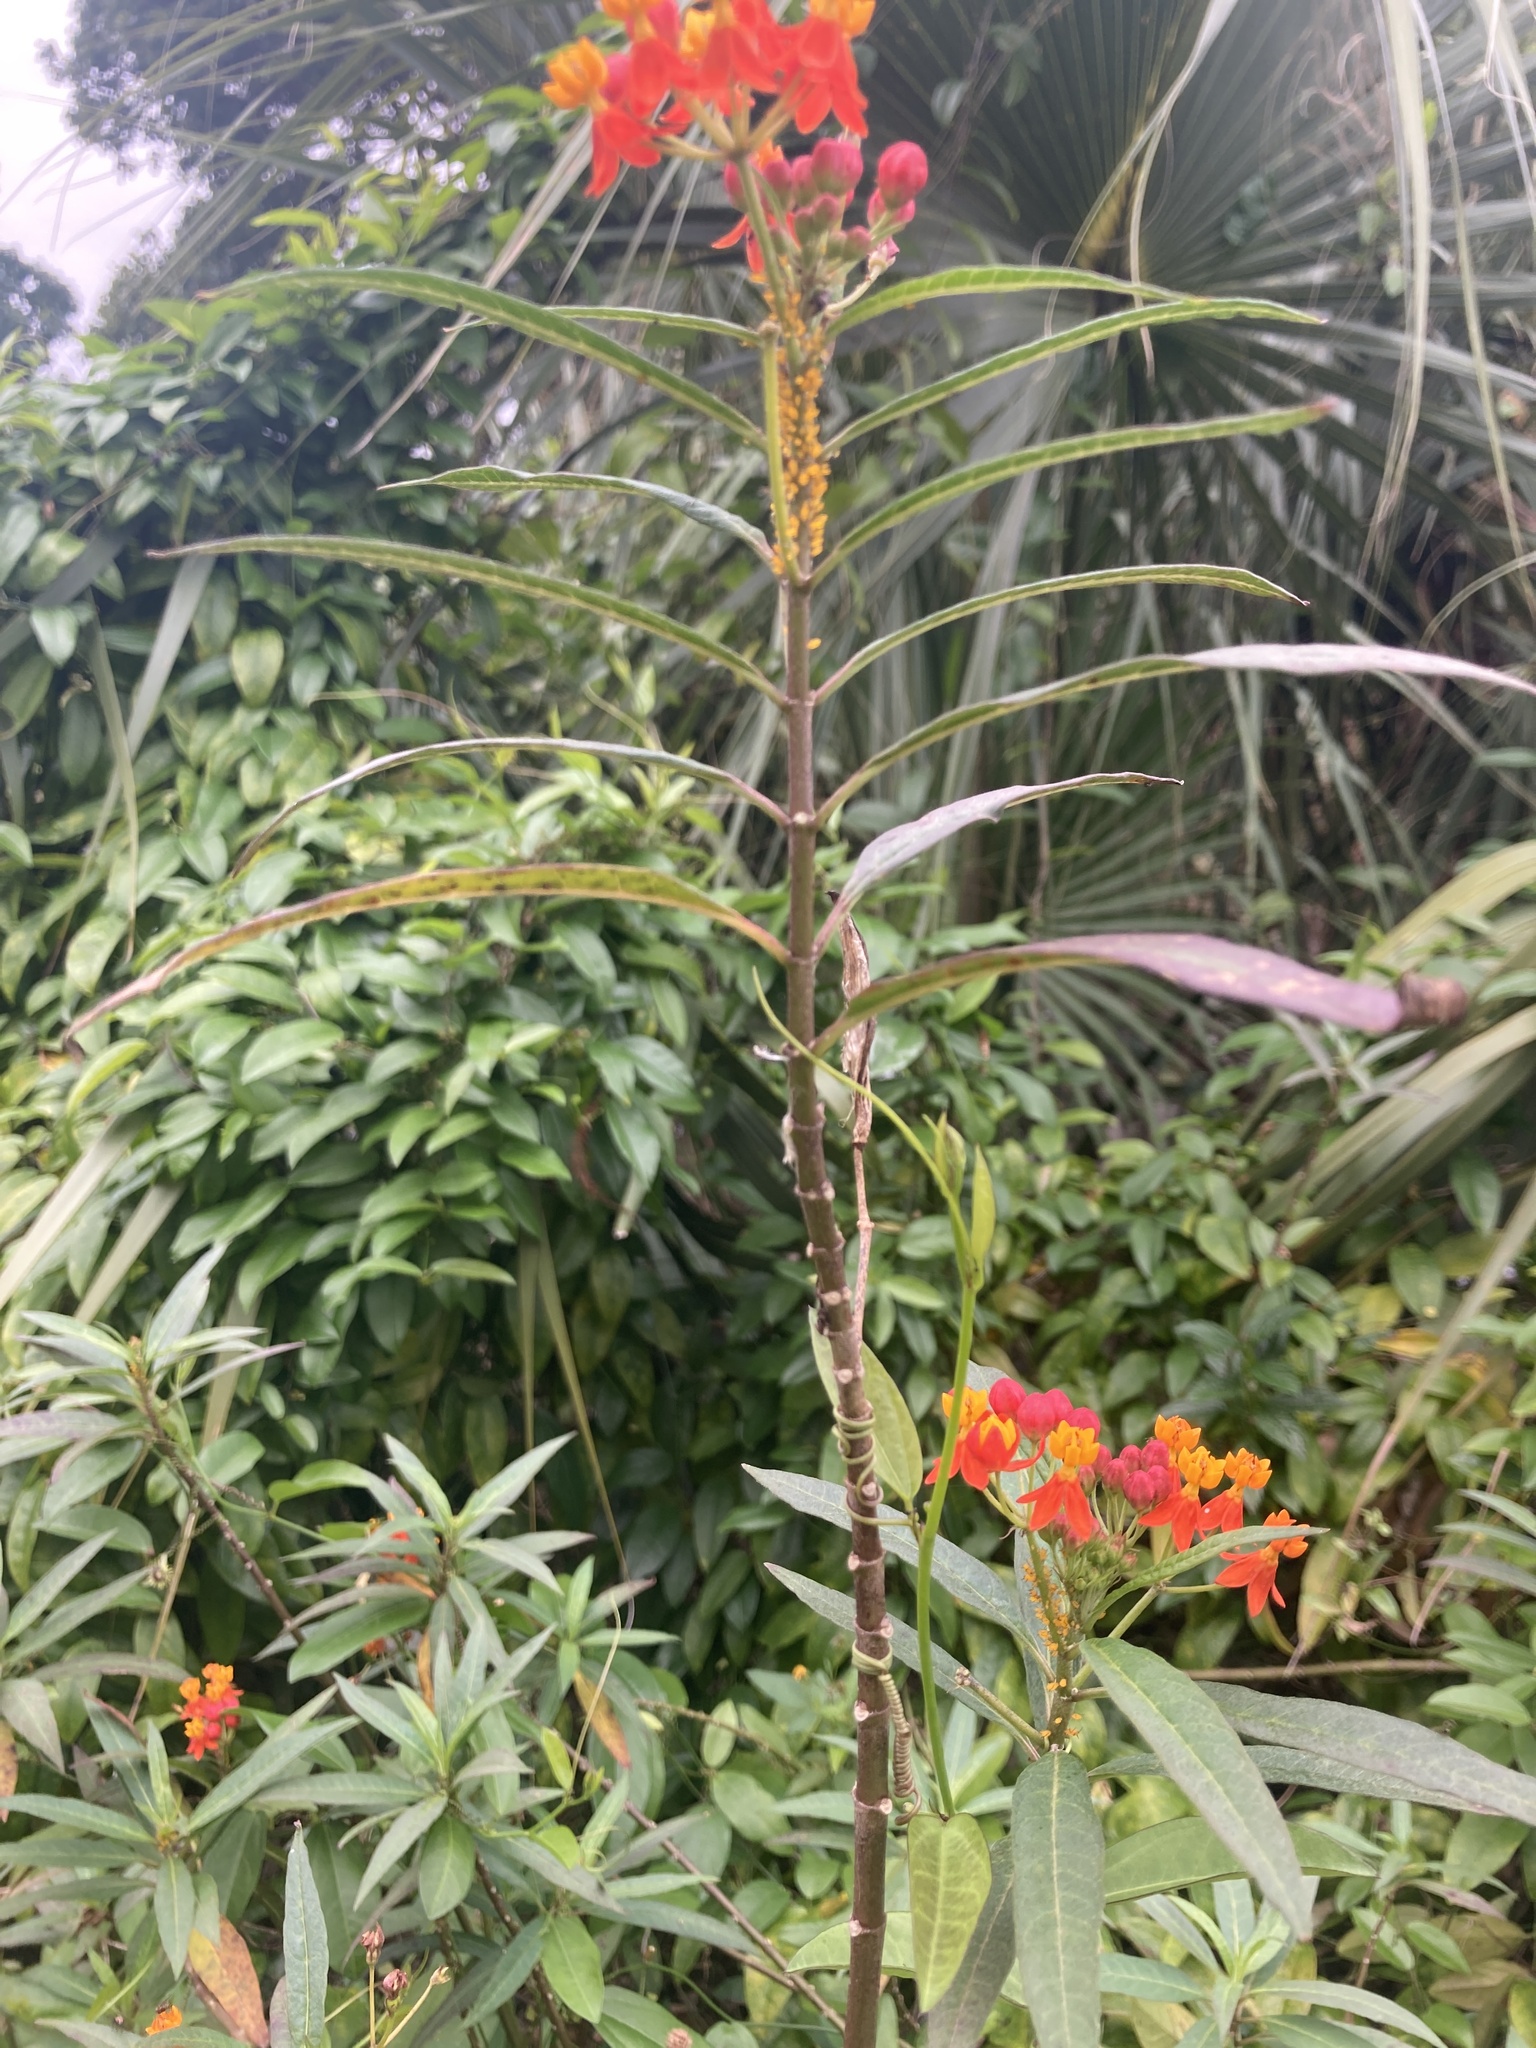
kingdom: Plantae
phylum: Tracheophyta
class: Magnoliopsida
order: Gentianales
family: Apocynaceae
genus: Asclepias
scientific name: Asclepias curassavica
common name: Bloodflower
